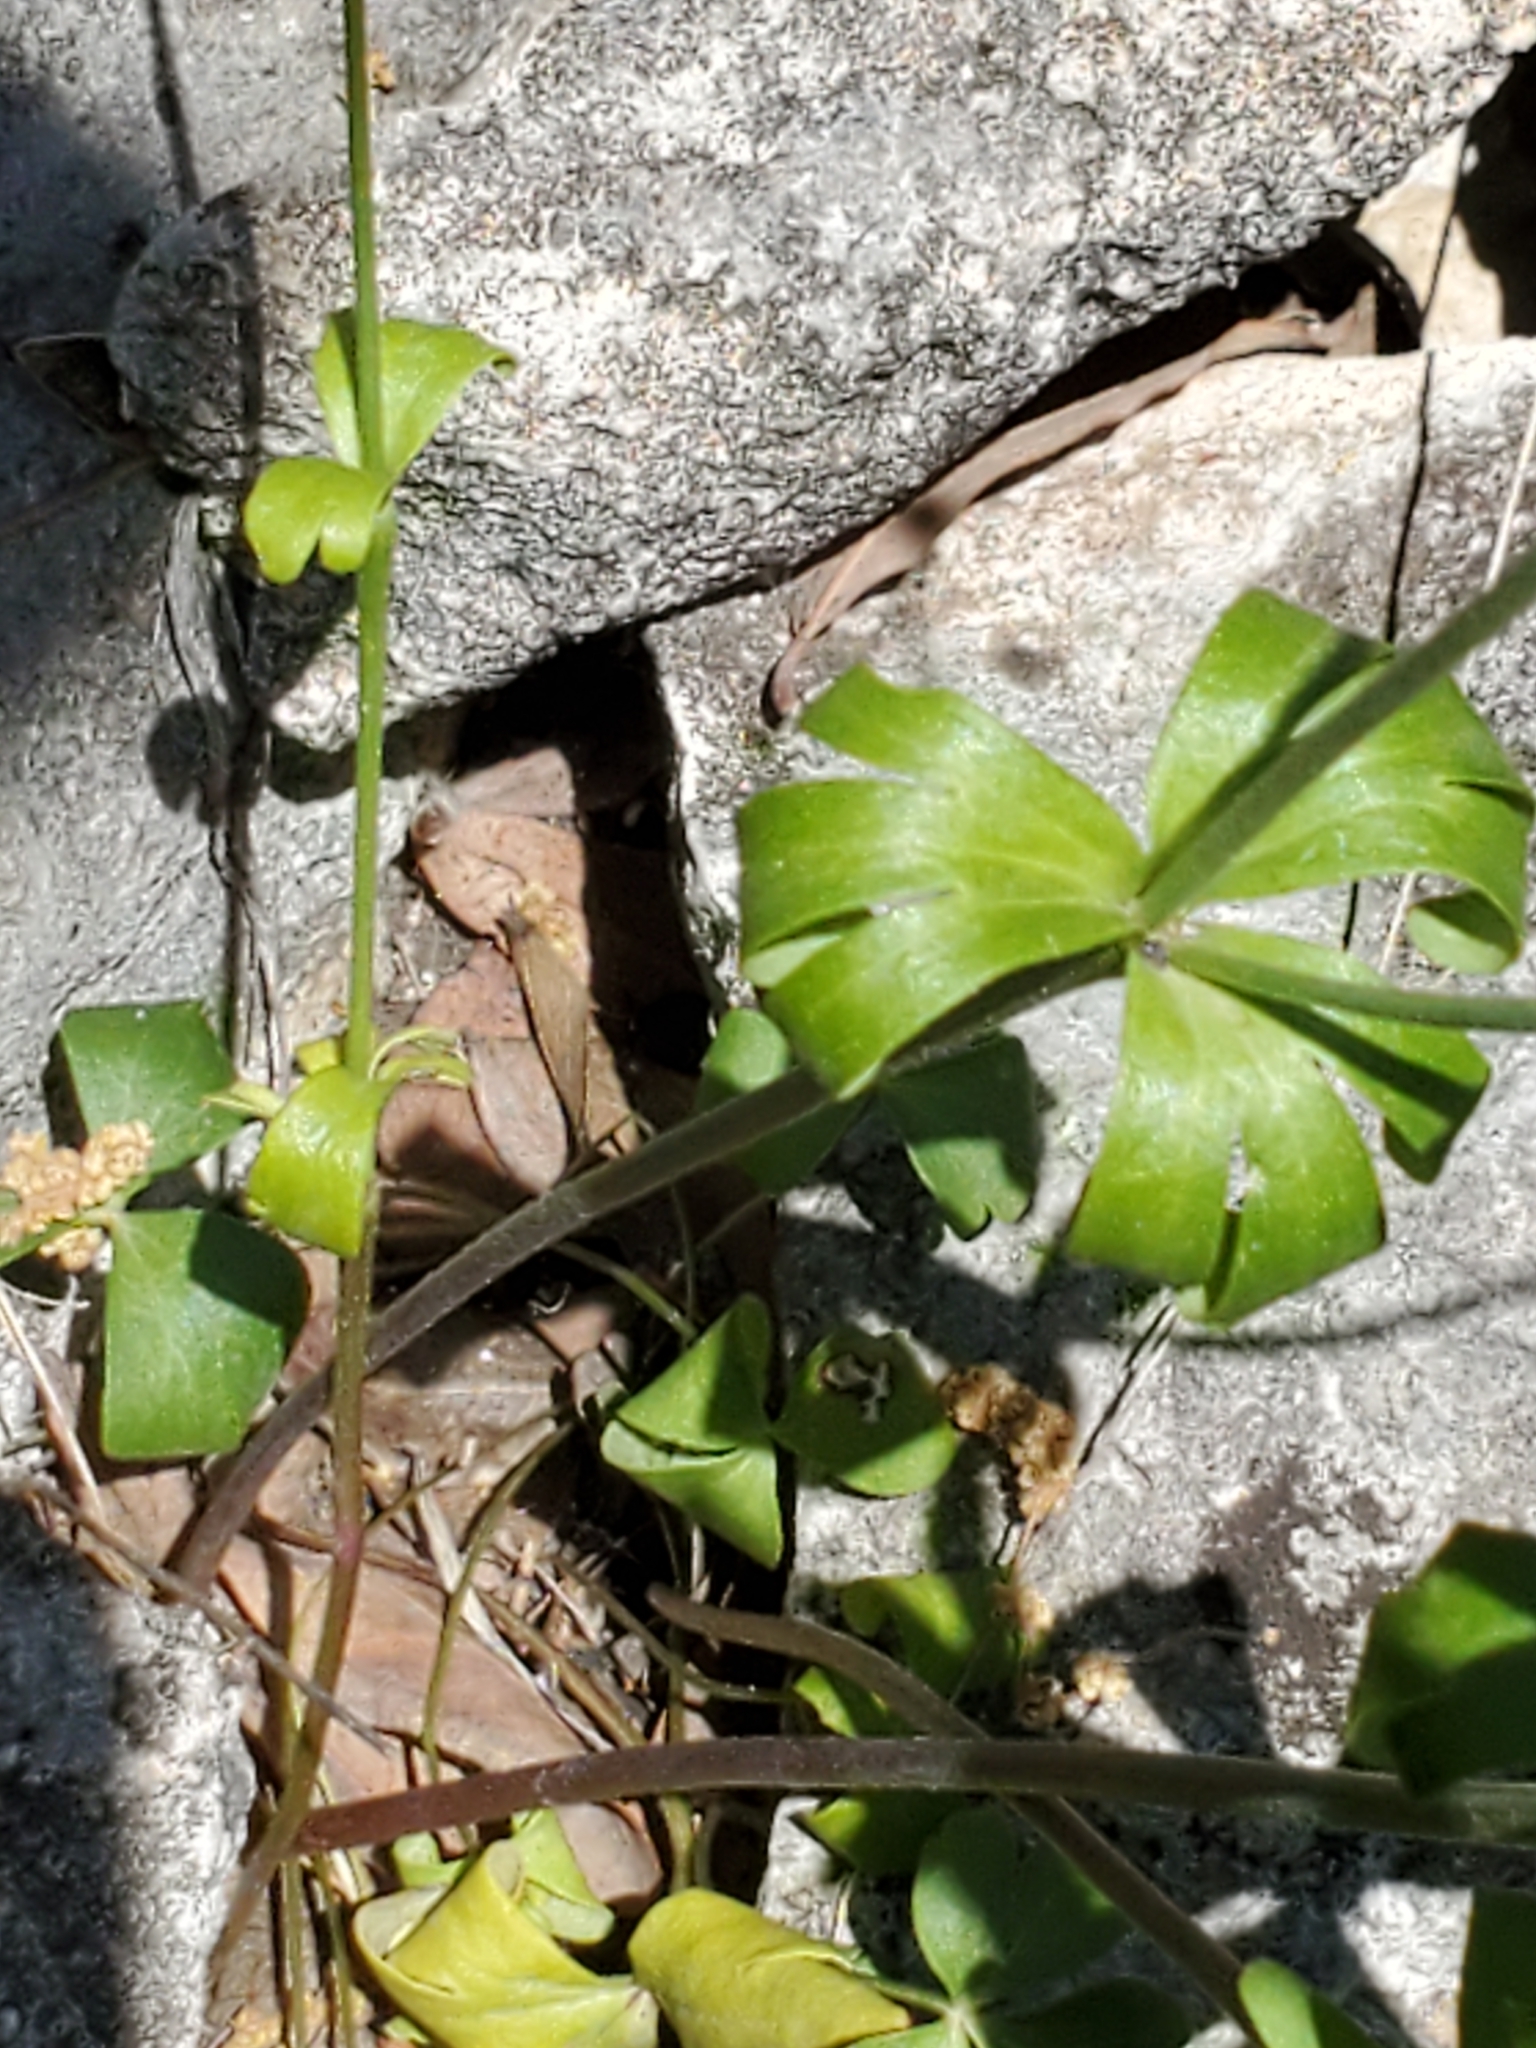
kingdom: Plantae
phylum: Tracheophyta
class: Magnoliopsida
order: Ranunculales
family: Ranunculaceae
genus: Anemone
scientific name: Anemone edwardsiana
